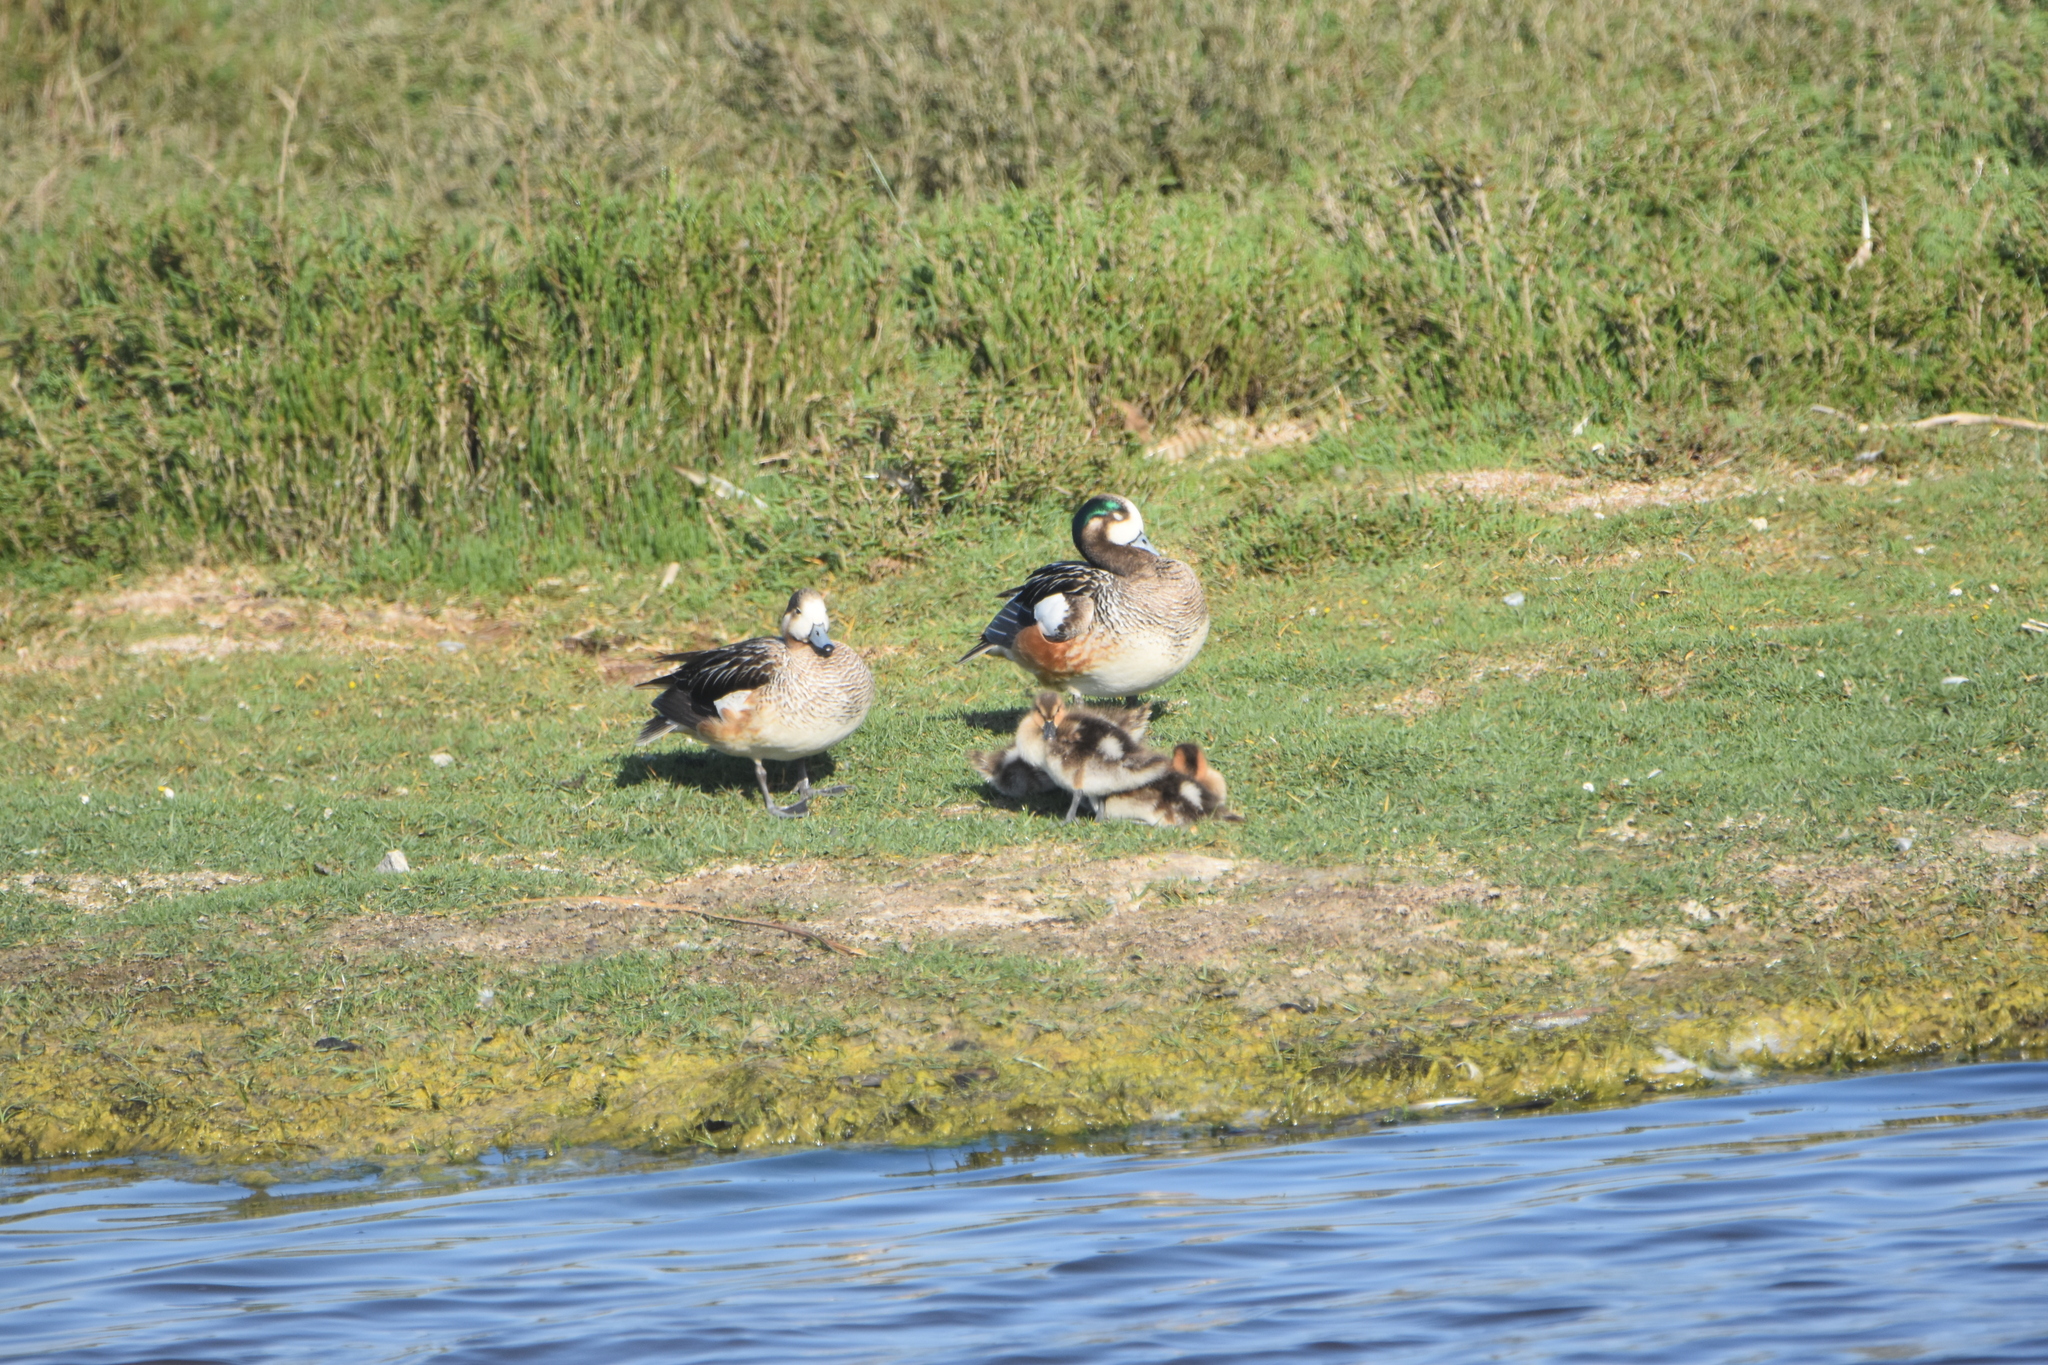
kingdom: Animalia
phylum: Chordata
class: Aves
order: Anseriformes
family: Anatidae
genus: Mareca
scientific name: Mareca sibilatrix
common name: Chiloe wigeon
